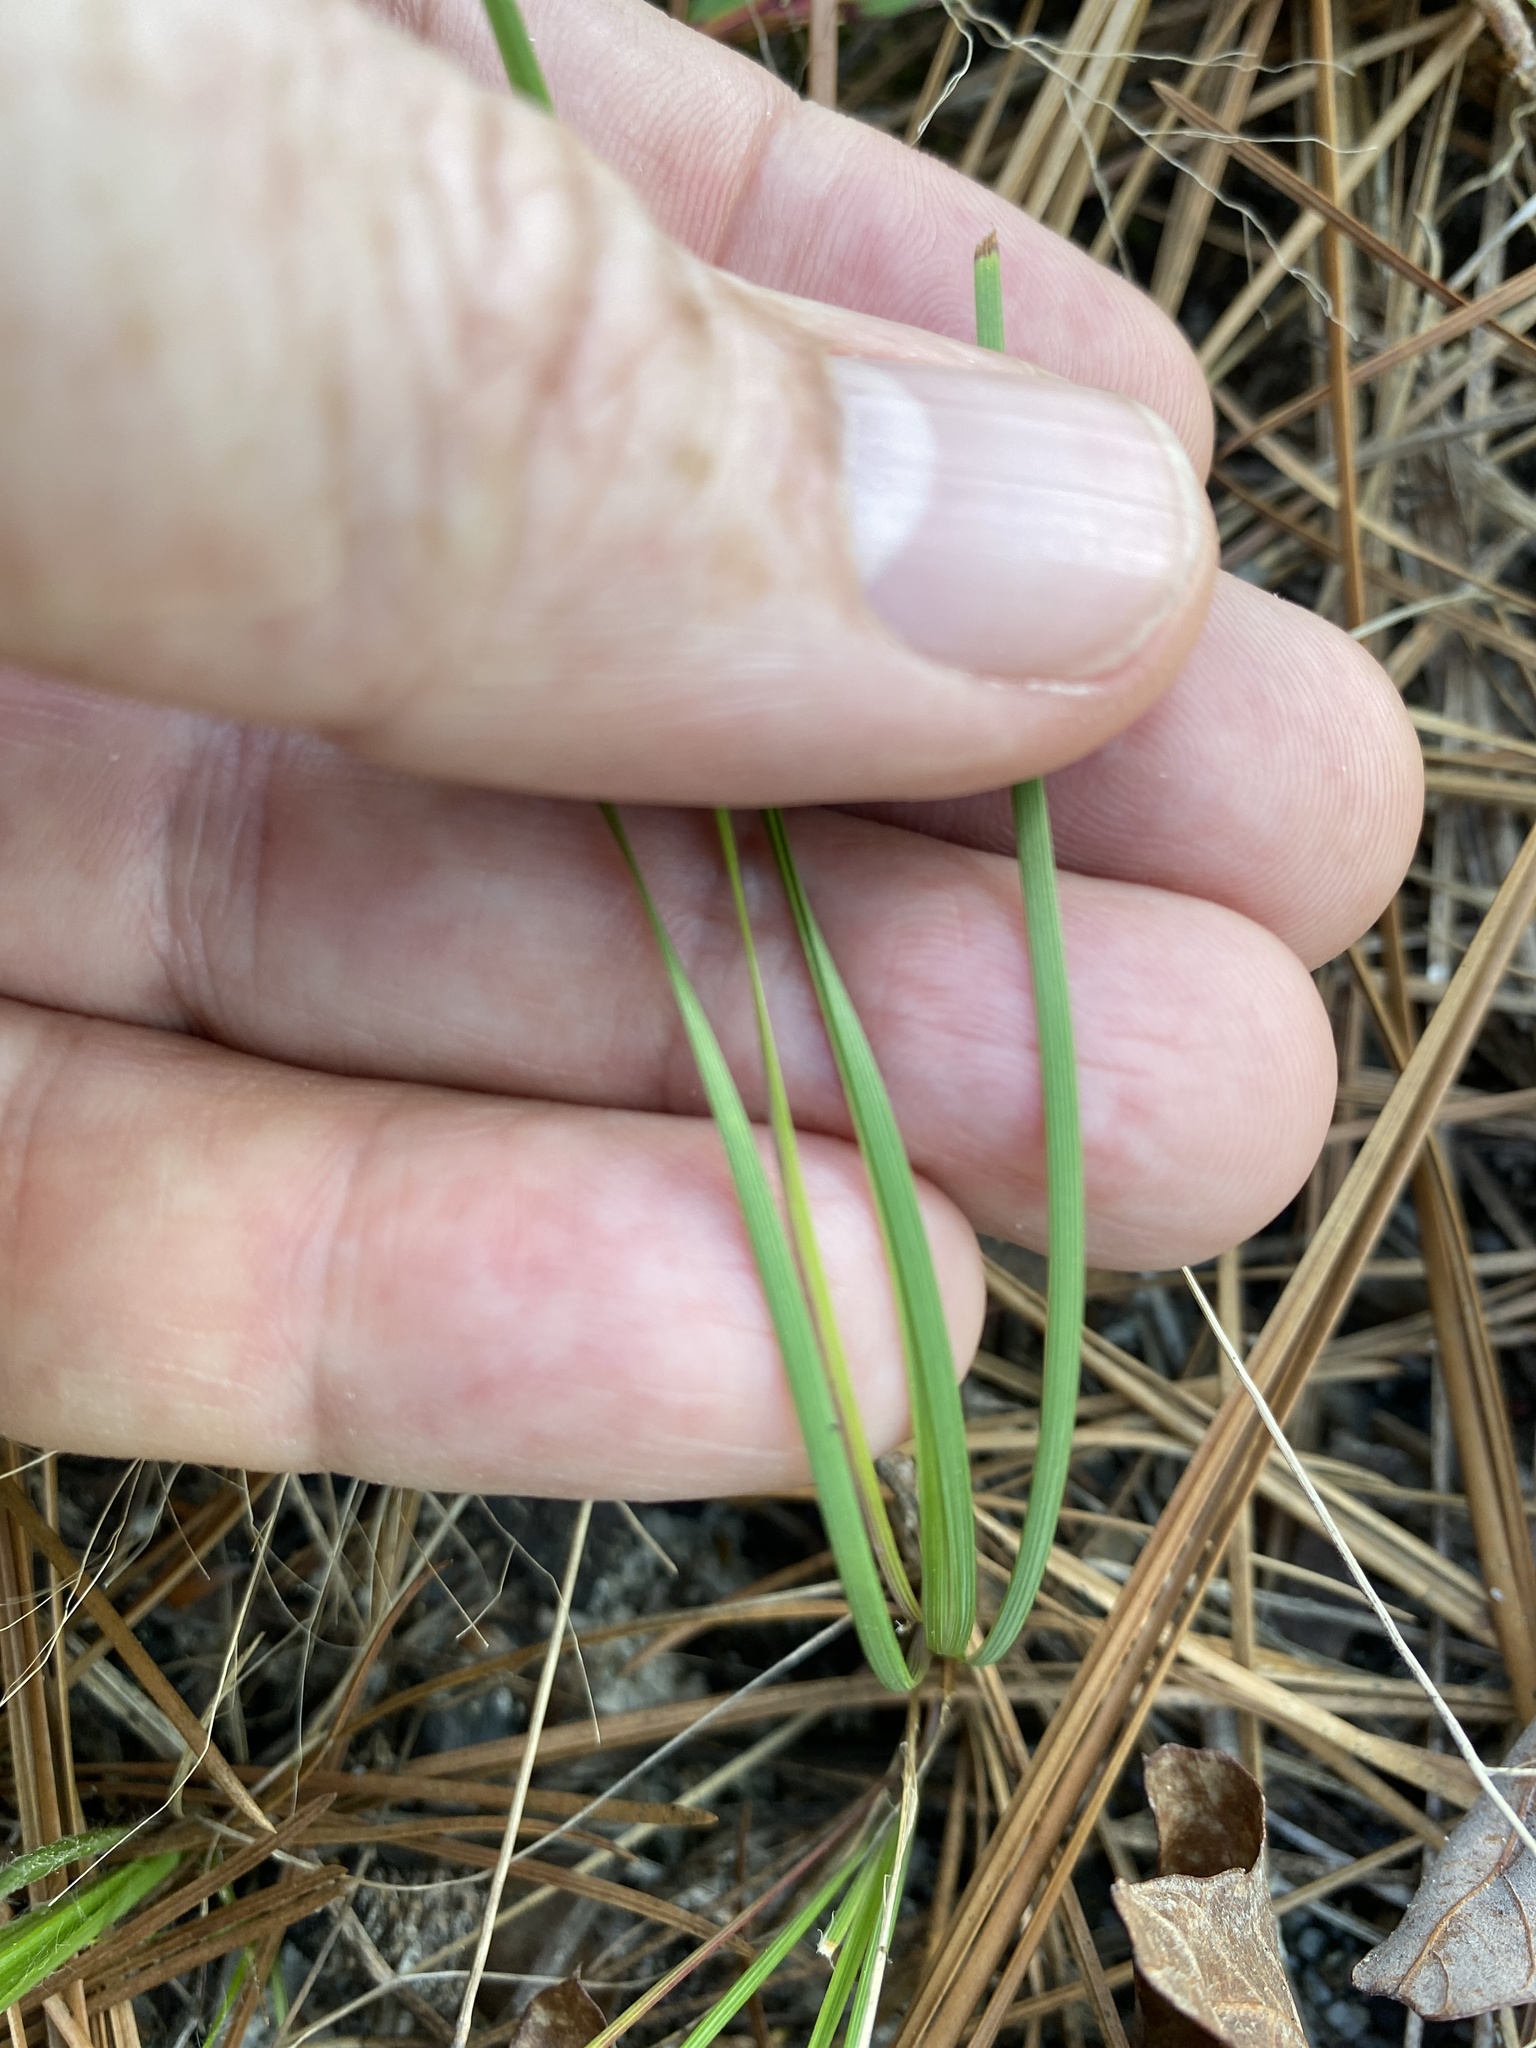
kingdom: Plantae
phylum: Tracheophyta
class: Liliopsida
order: Asparagales
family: Iridaceae
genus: Sisyrinchium
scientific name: Sisyrinchium fuscatum
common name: Coastal plain blue-eyed-grass
